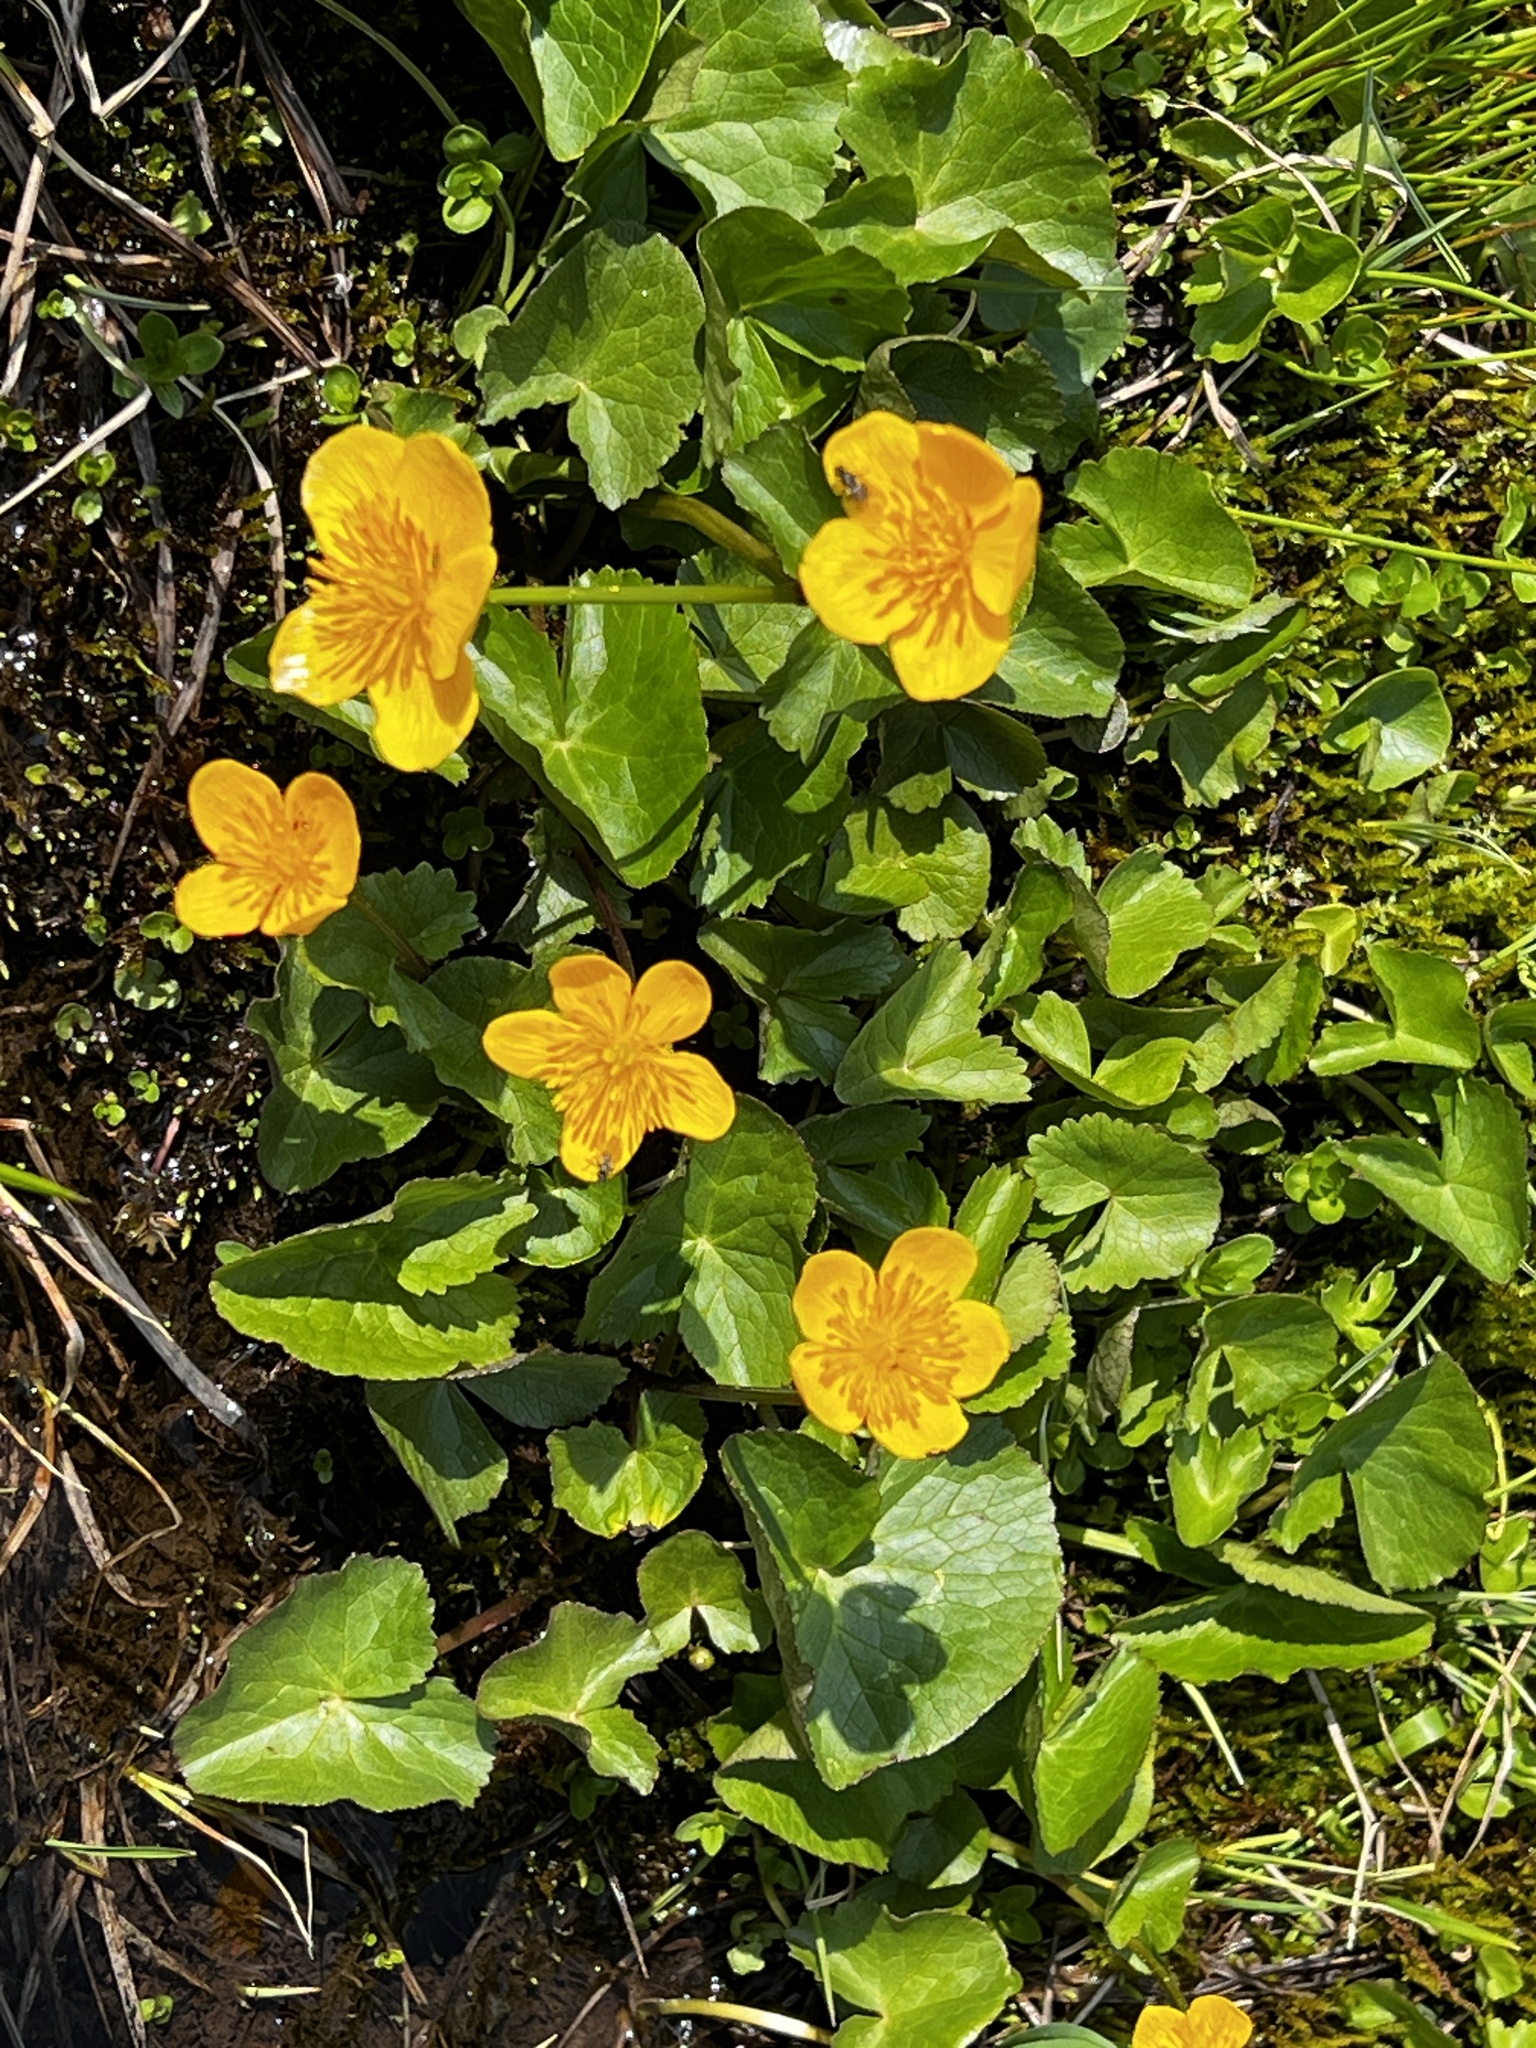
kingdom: Plantae
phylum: Tracheophyta
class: Magnoliopsida
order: Ranunculales
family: Ranunculaceae
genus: Caltha
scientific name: Caltha palustris
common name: Marsh marigold
